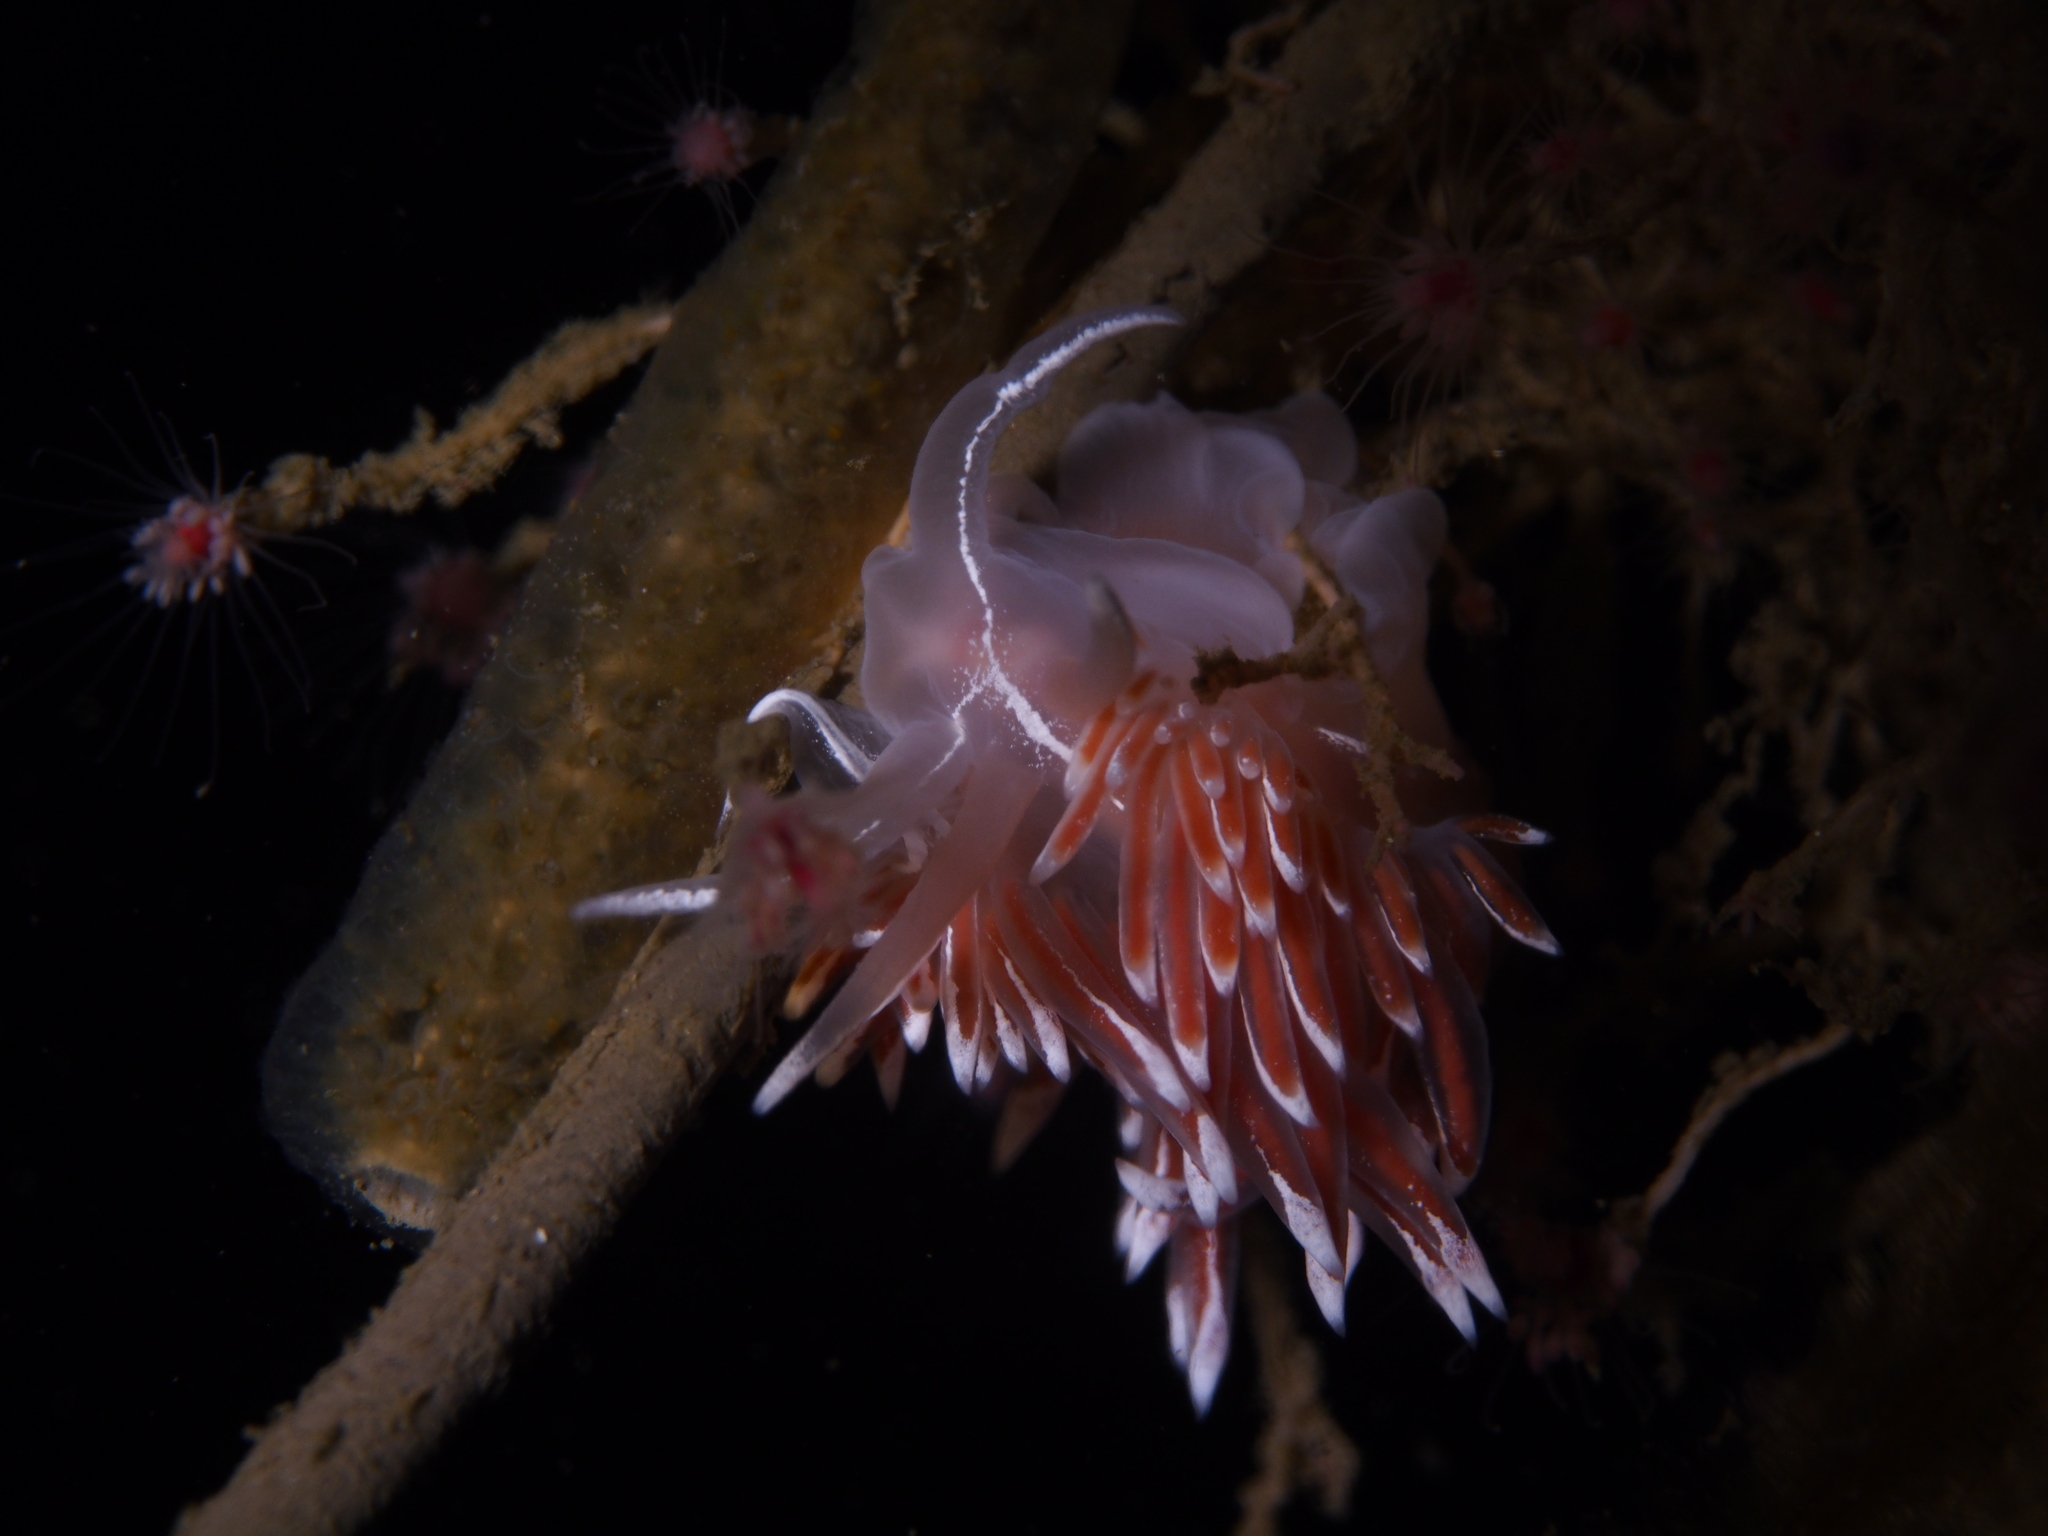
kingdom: Animalia
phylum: Mollusca
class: Gastropoda
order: Nudibranchia
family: Coryphellidae
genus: Coryphella
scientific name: Coryphella lineata
